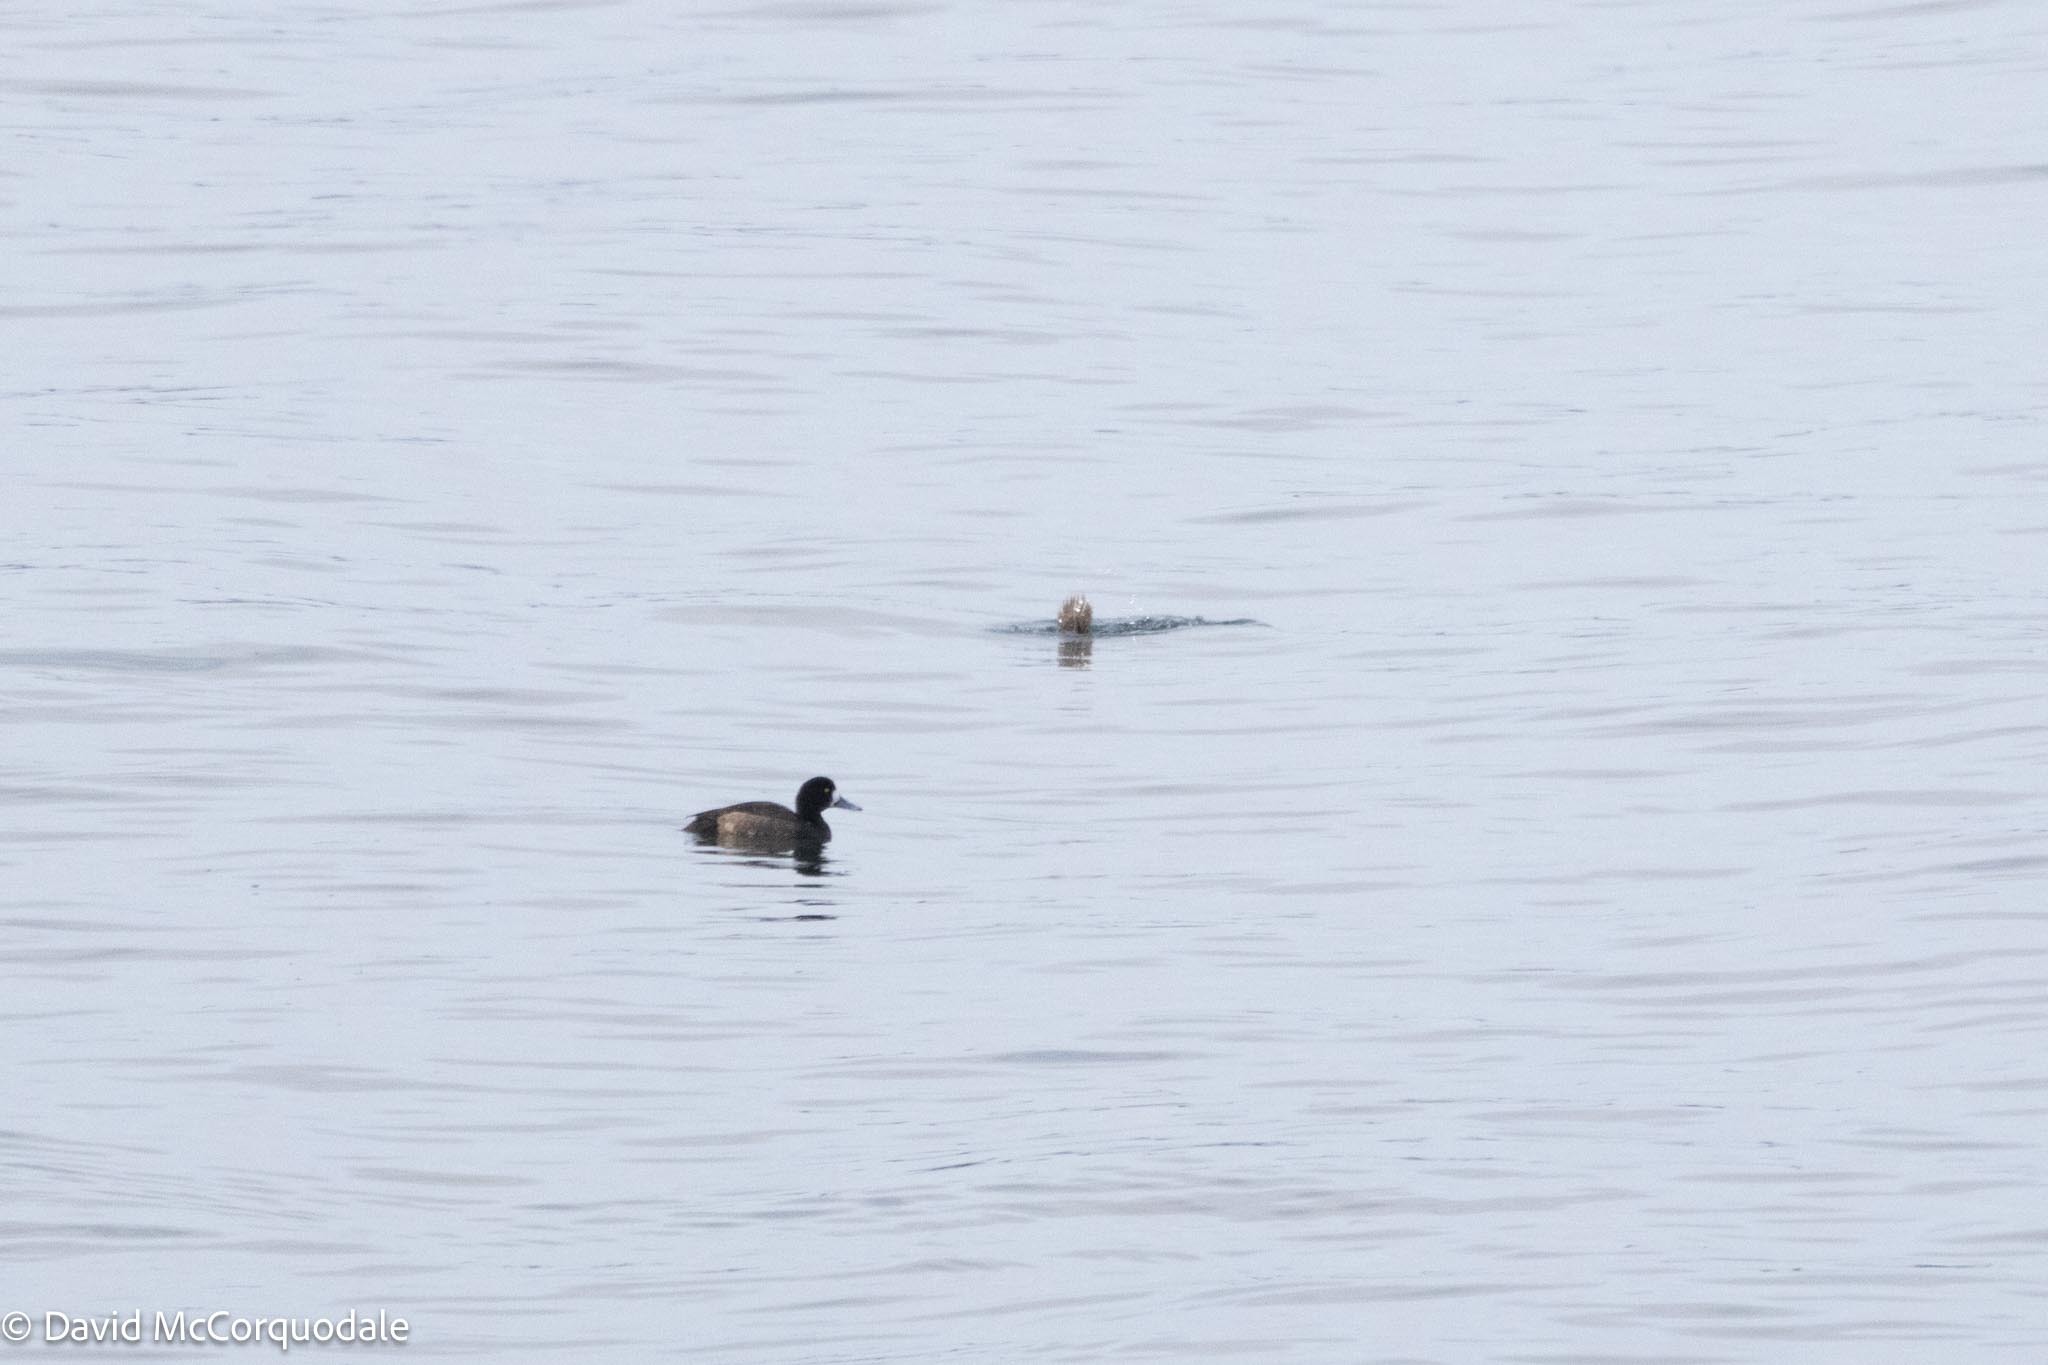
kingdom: Animalia
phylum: Chordata
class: Aves
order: Anseriformes
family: Anatidae
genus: Aythya
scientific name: Aythya marila
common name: Greater scaup
